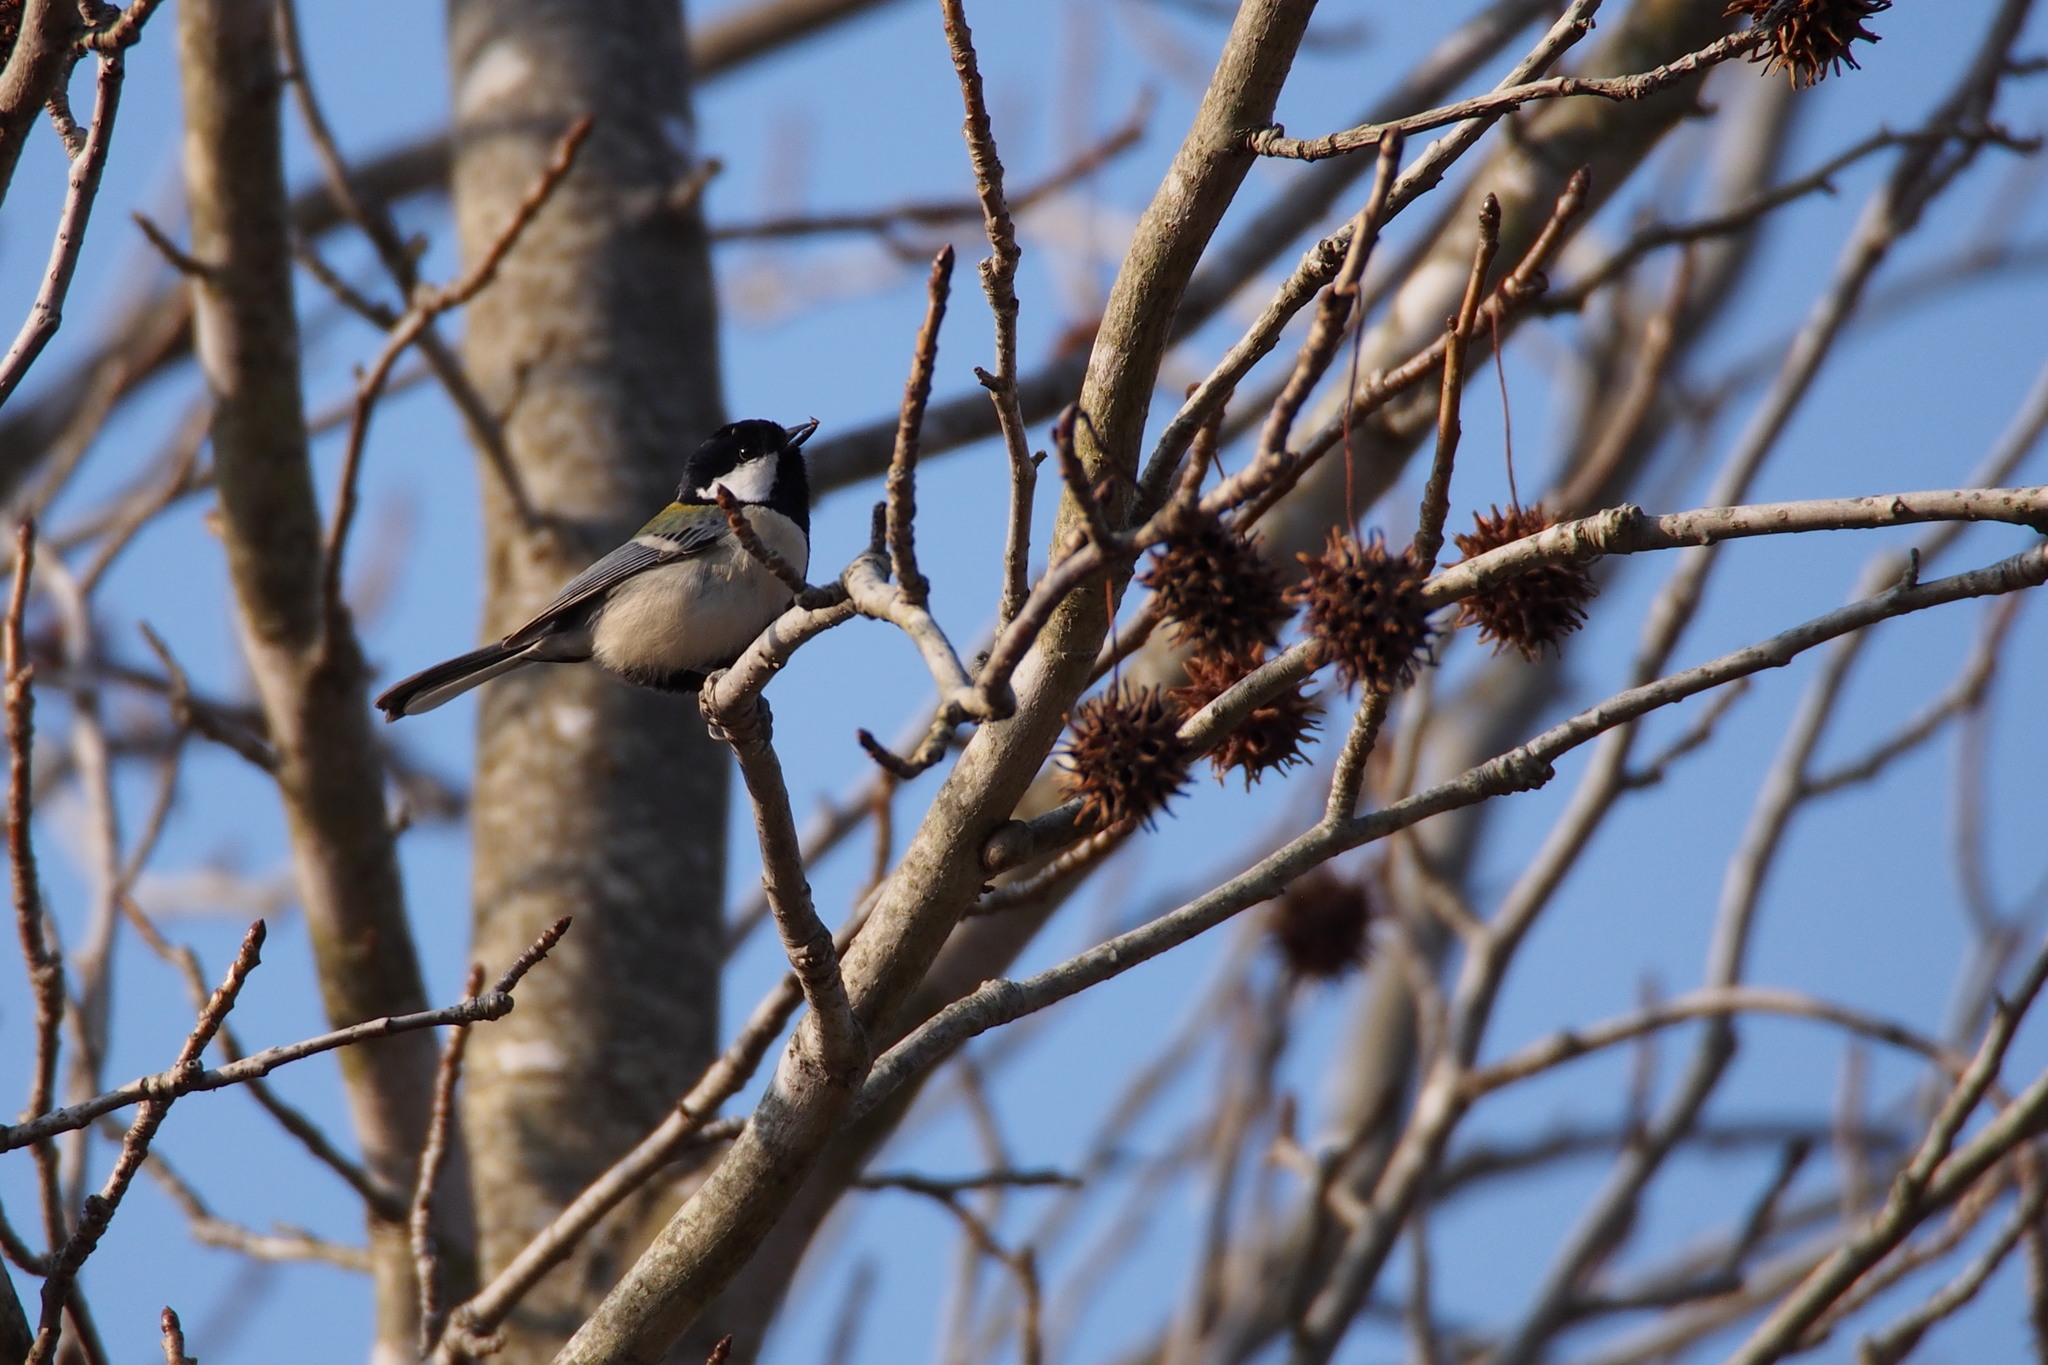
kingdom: Animalia
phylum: Chordata
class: Aves
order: Passeriformes
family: Paridae
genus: Parus
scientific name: Parus minor
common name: Japanese tit
